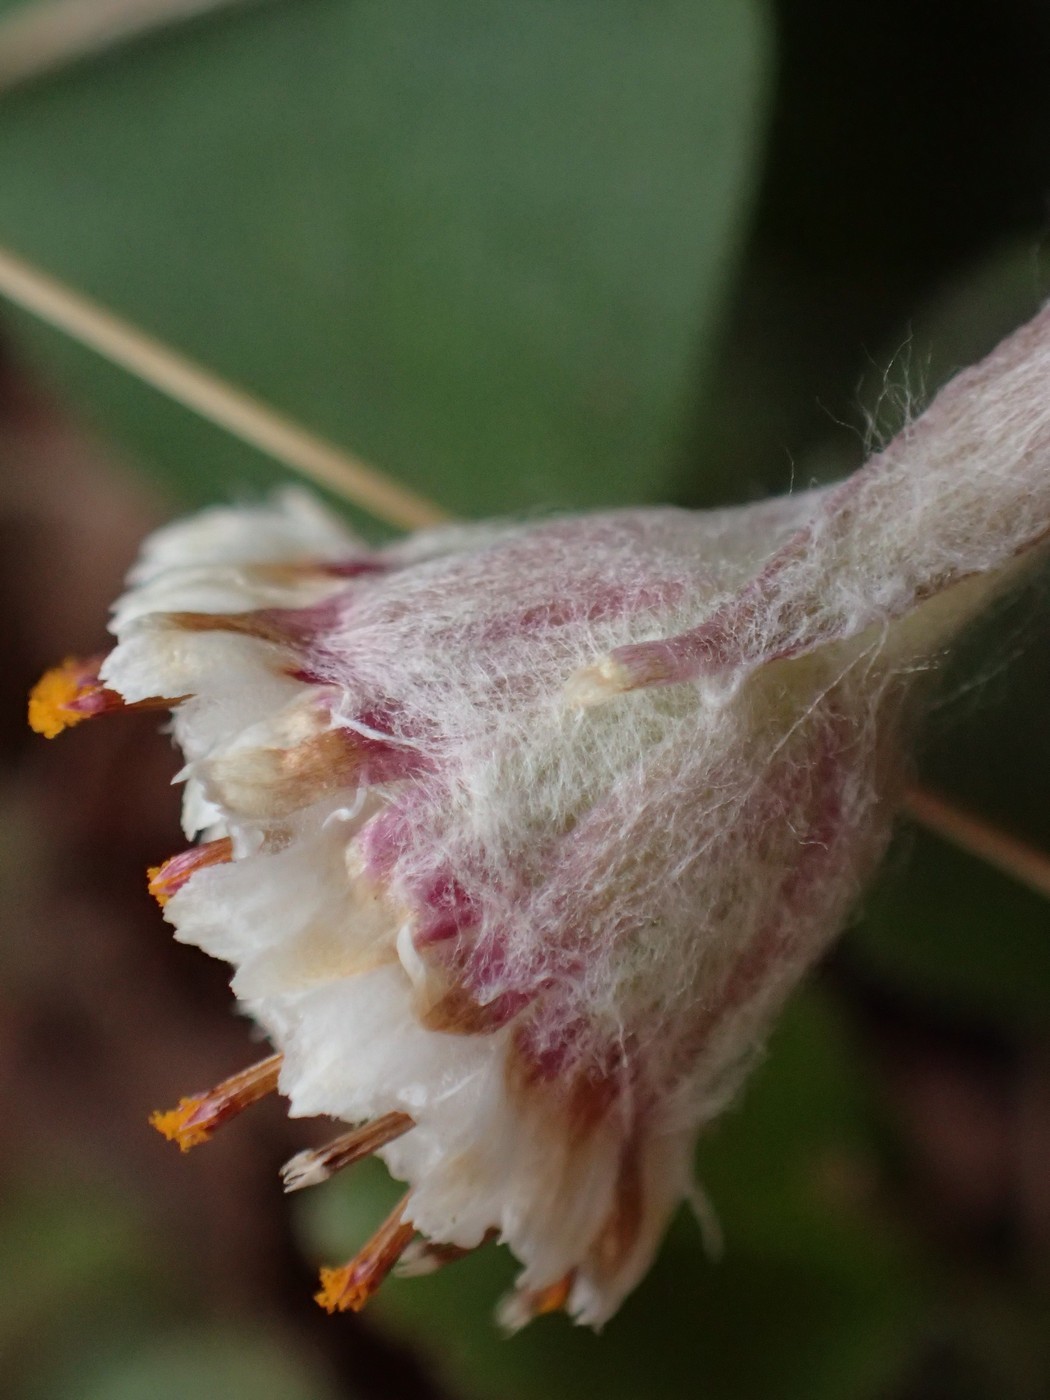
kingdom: Plantae
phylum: Tracheophyta
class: Magnoliopsida
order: Asterales
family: Asteraceae
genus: Antennaria
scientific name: Antennaria solitaria
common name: Single-head pussytoes
